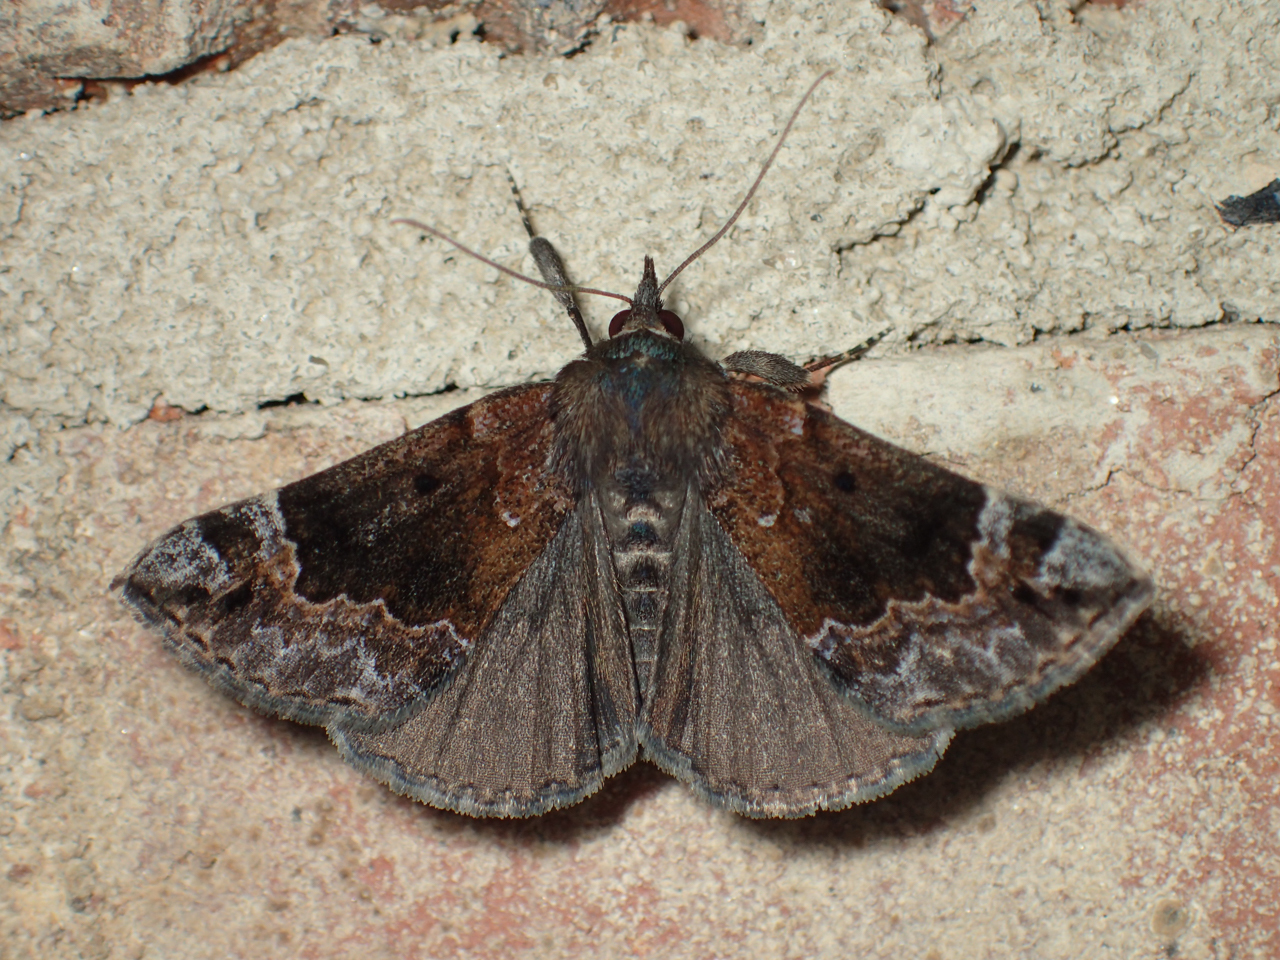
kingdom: Animalia
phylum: Arthropoda
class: Insecta
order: Lepidoptera
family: Erebidae
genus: Hypena
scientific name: Hypena palparia
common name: Mottled bomolocha moth
